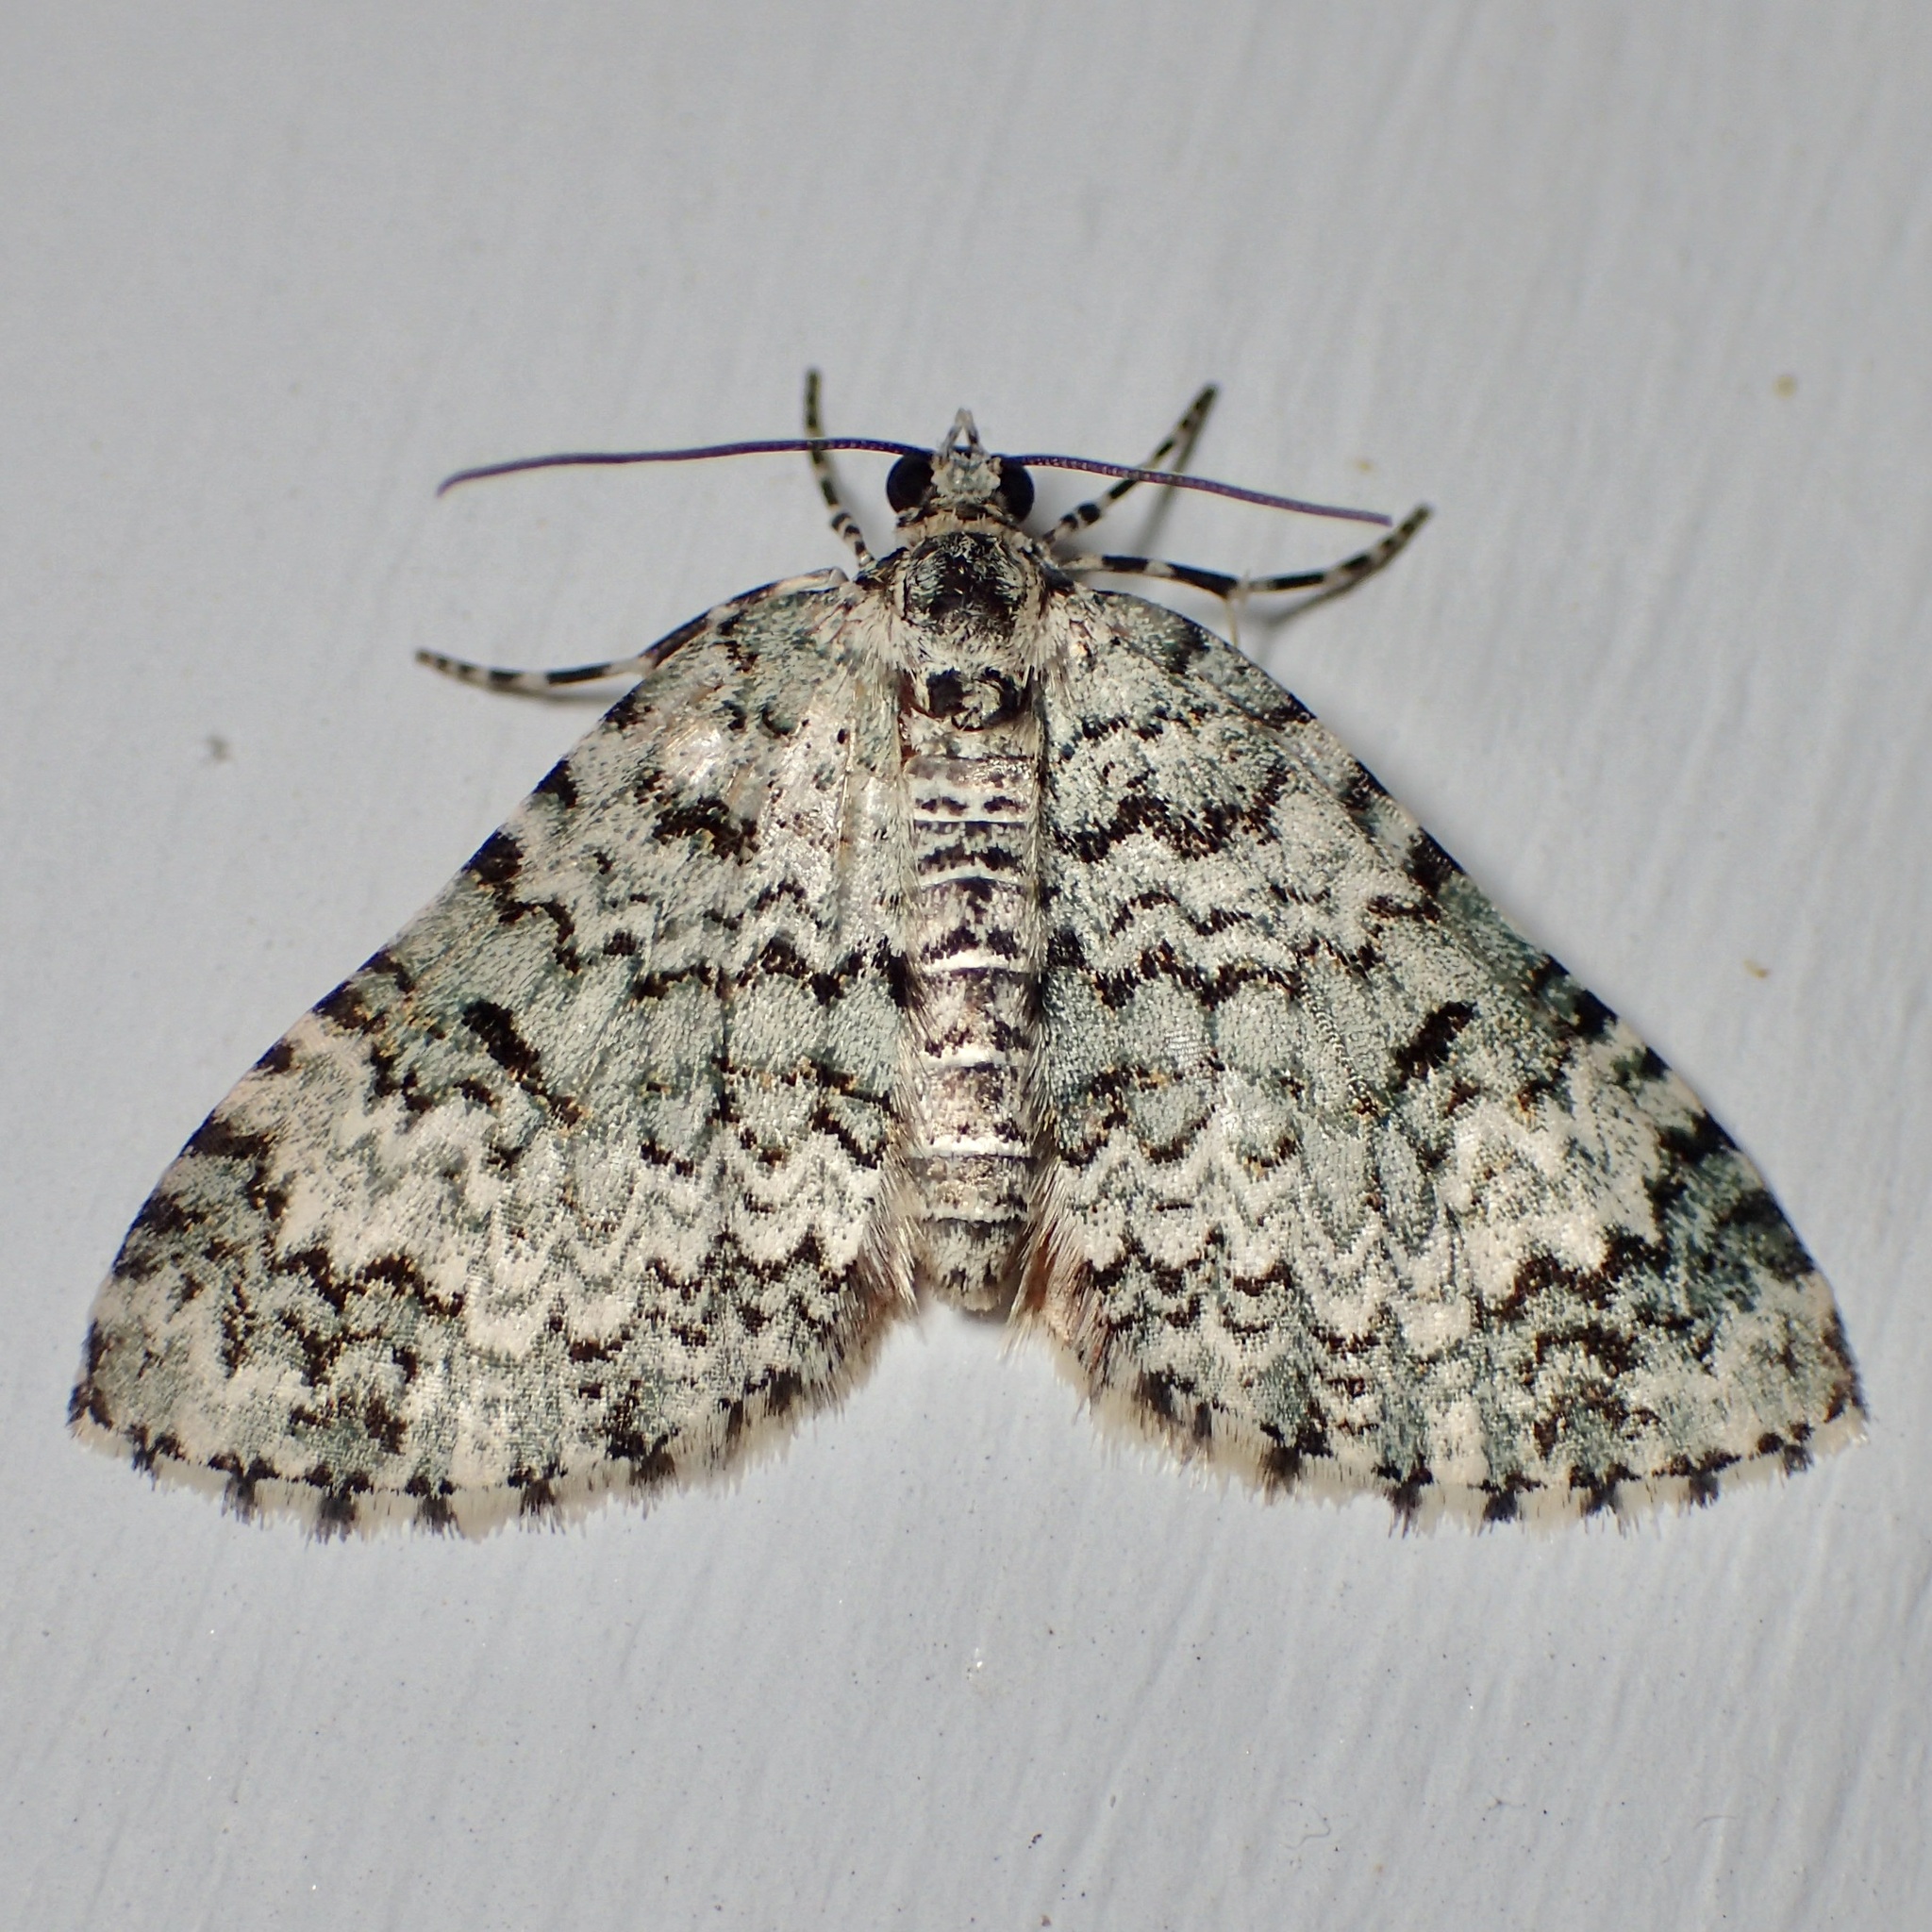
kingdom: Animalia
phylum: Arthropoda
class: Insecta
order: Lepidoptera
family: Geometridae
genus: Spargania
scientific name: Spargania viridescens
